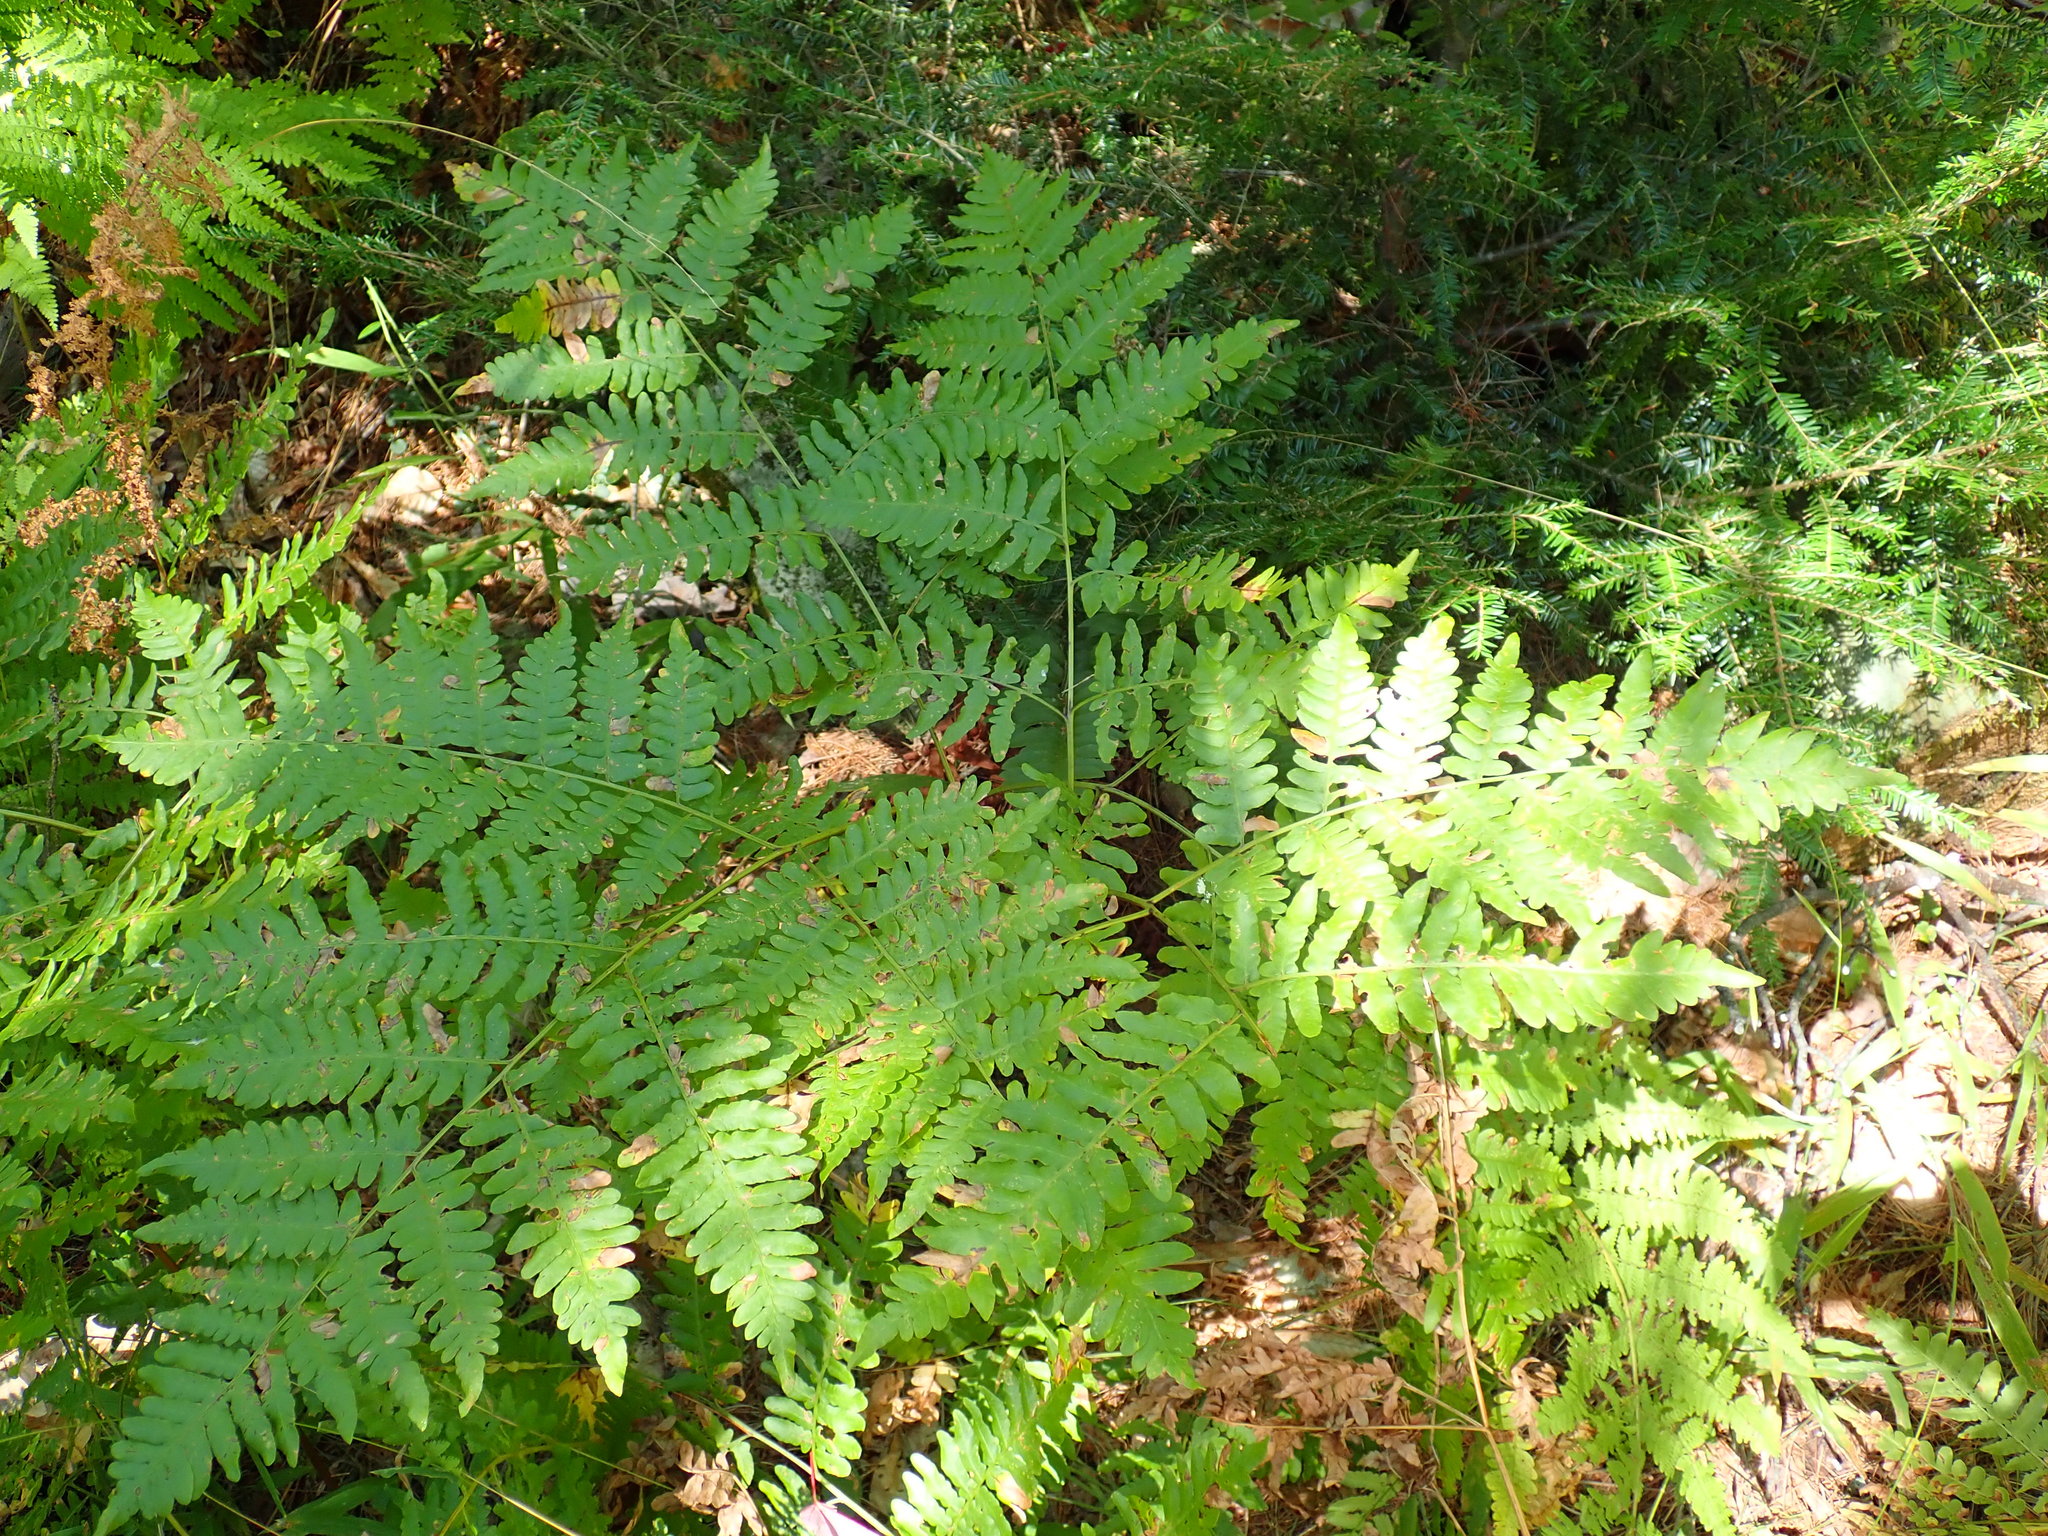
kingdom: Plantae
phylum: Tracheophyta
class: Polypodiopsida
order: Polypodiales
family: Dennstaedtiaceae
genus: Pteridium
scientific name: Pteridium aquilinum
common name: Bracken
